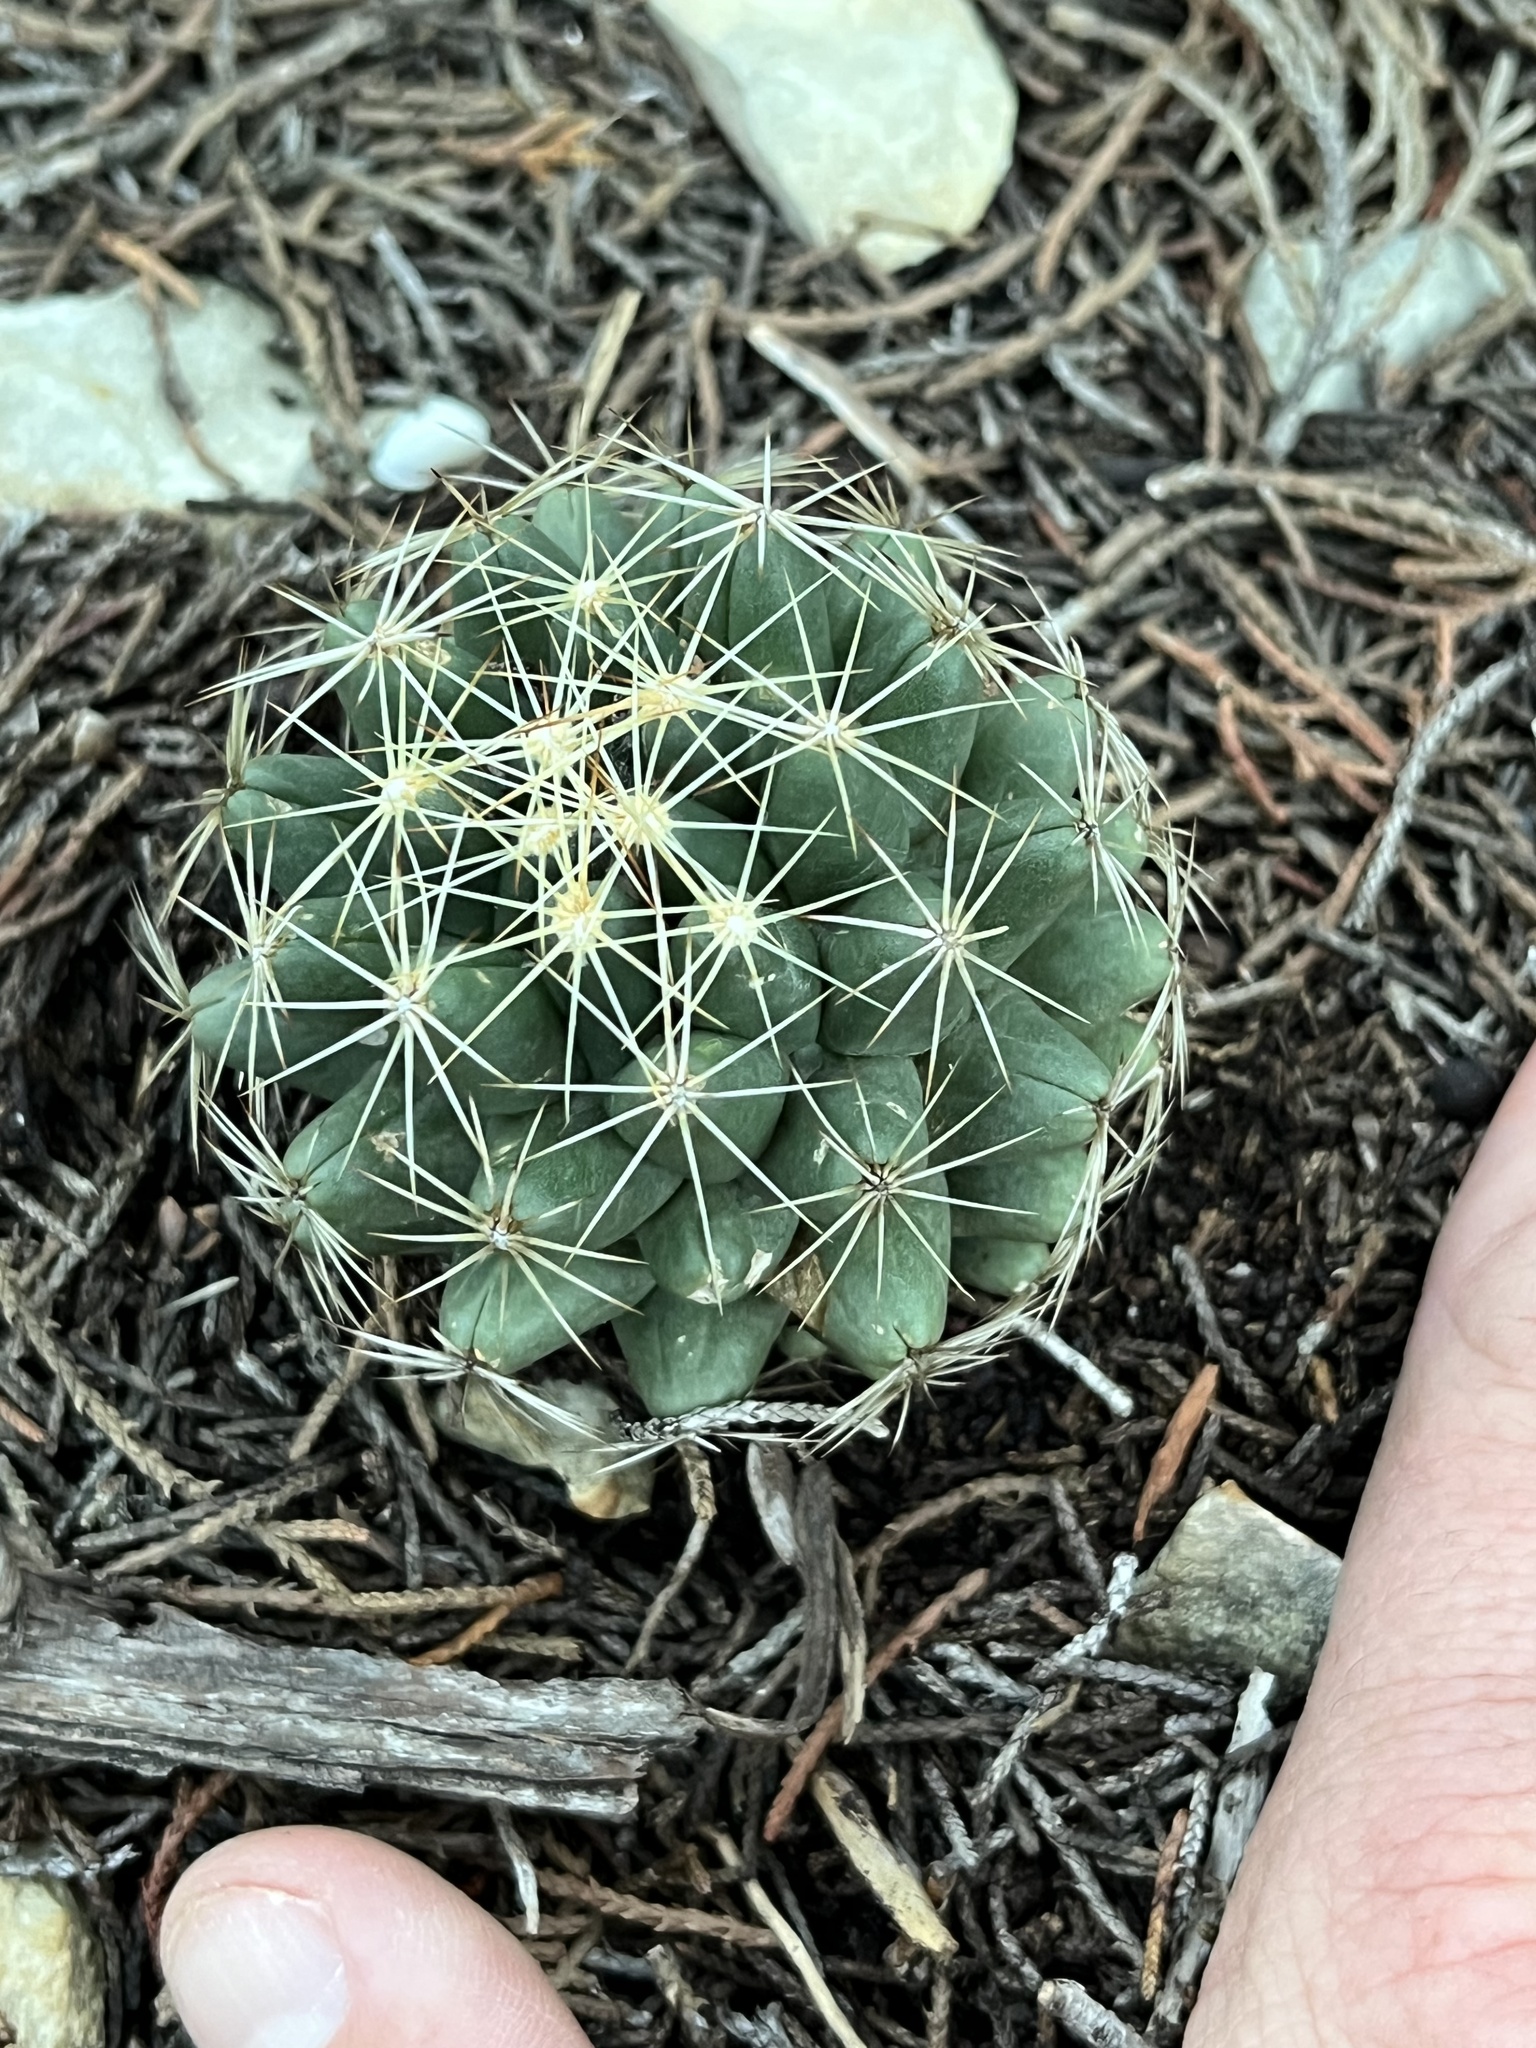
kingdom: Plantae
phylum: Tracheophyta
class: Magnoliopsida
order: Caryophyllales
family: Cactaceae
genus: Coryphantha
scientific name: Coryphantha sulcata
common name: Finger cactus
